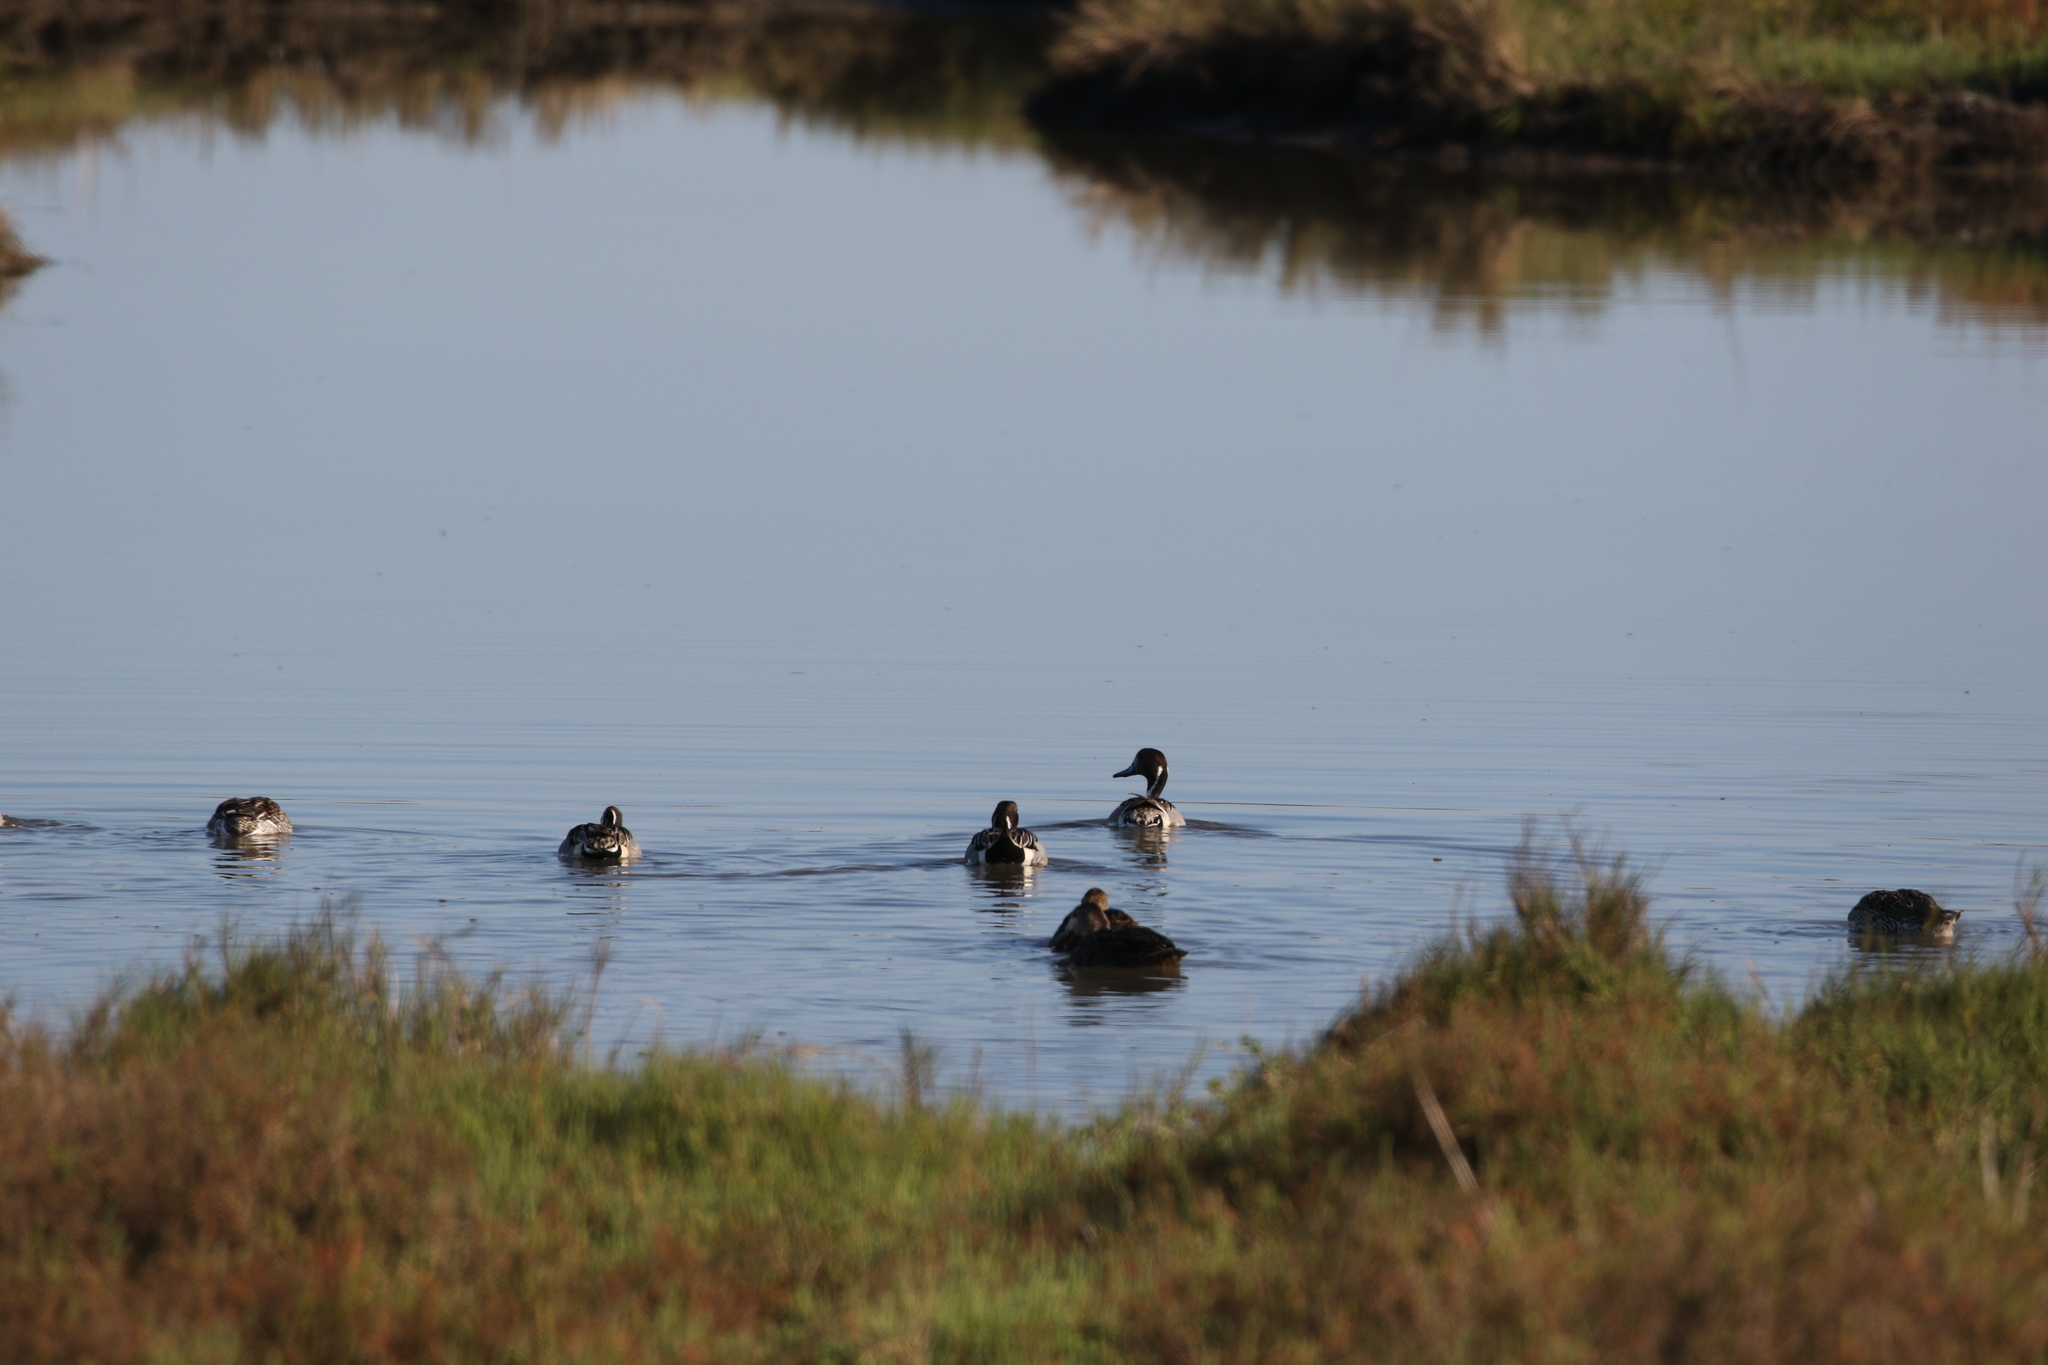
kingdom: Animalia
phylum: Chordata
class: Aves
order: Anseriformes
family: Anatidae
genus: Anas
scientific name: Anas acuta
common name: Northern pintail
